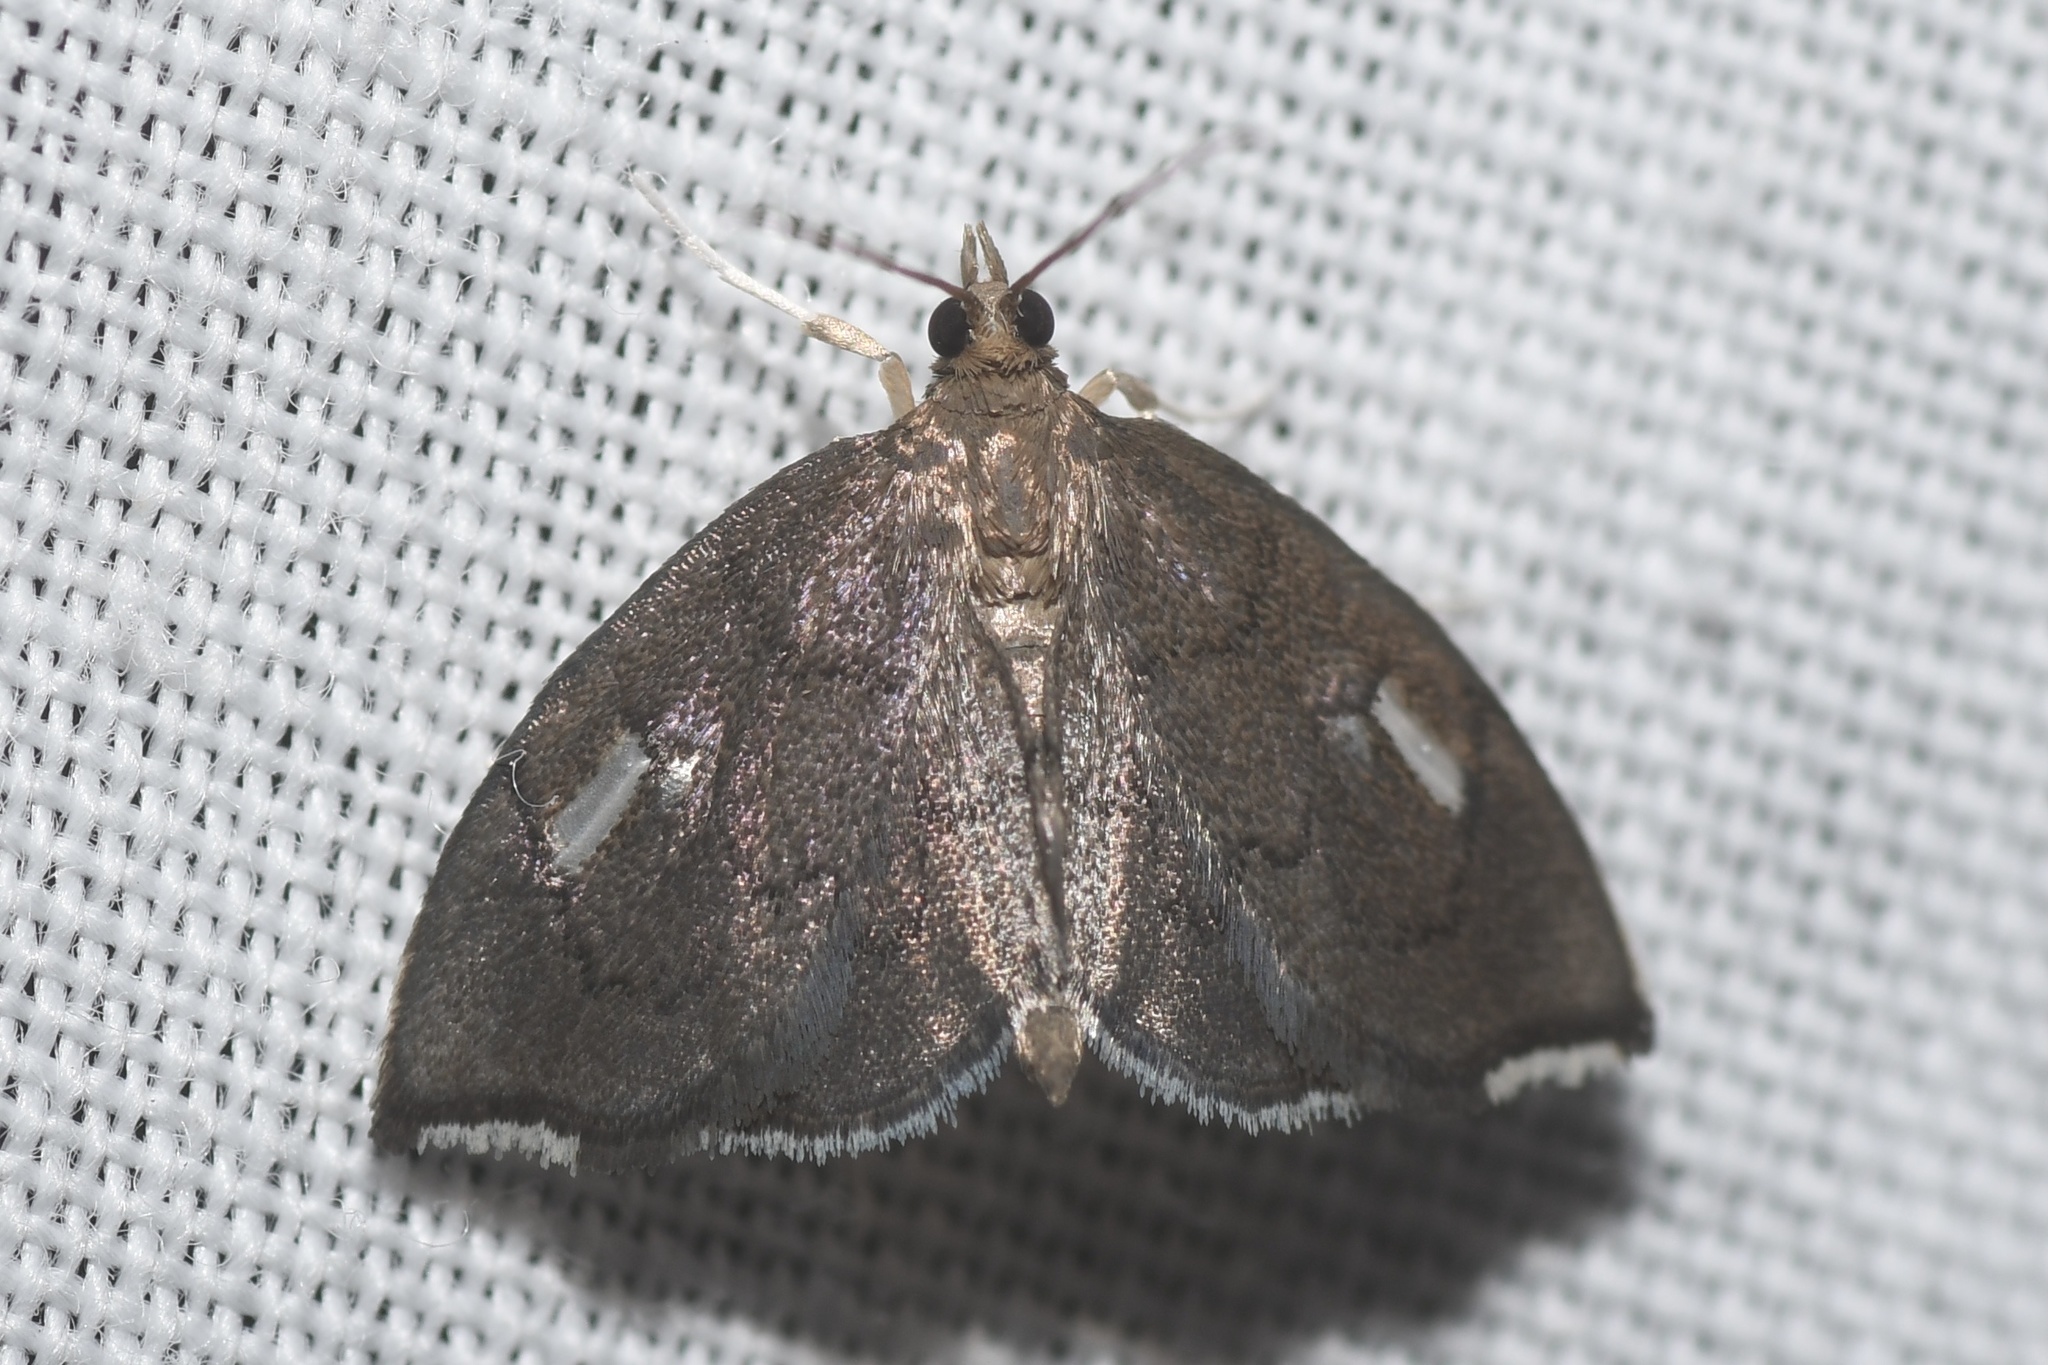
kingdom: Animalia
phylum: Arthropoda
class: Insecta
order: Lepidoptera
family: Crambidae
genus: Perispasta
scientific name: Perispasta caeculalis
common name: Titian peale's moth
